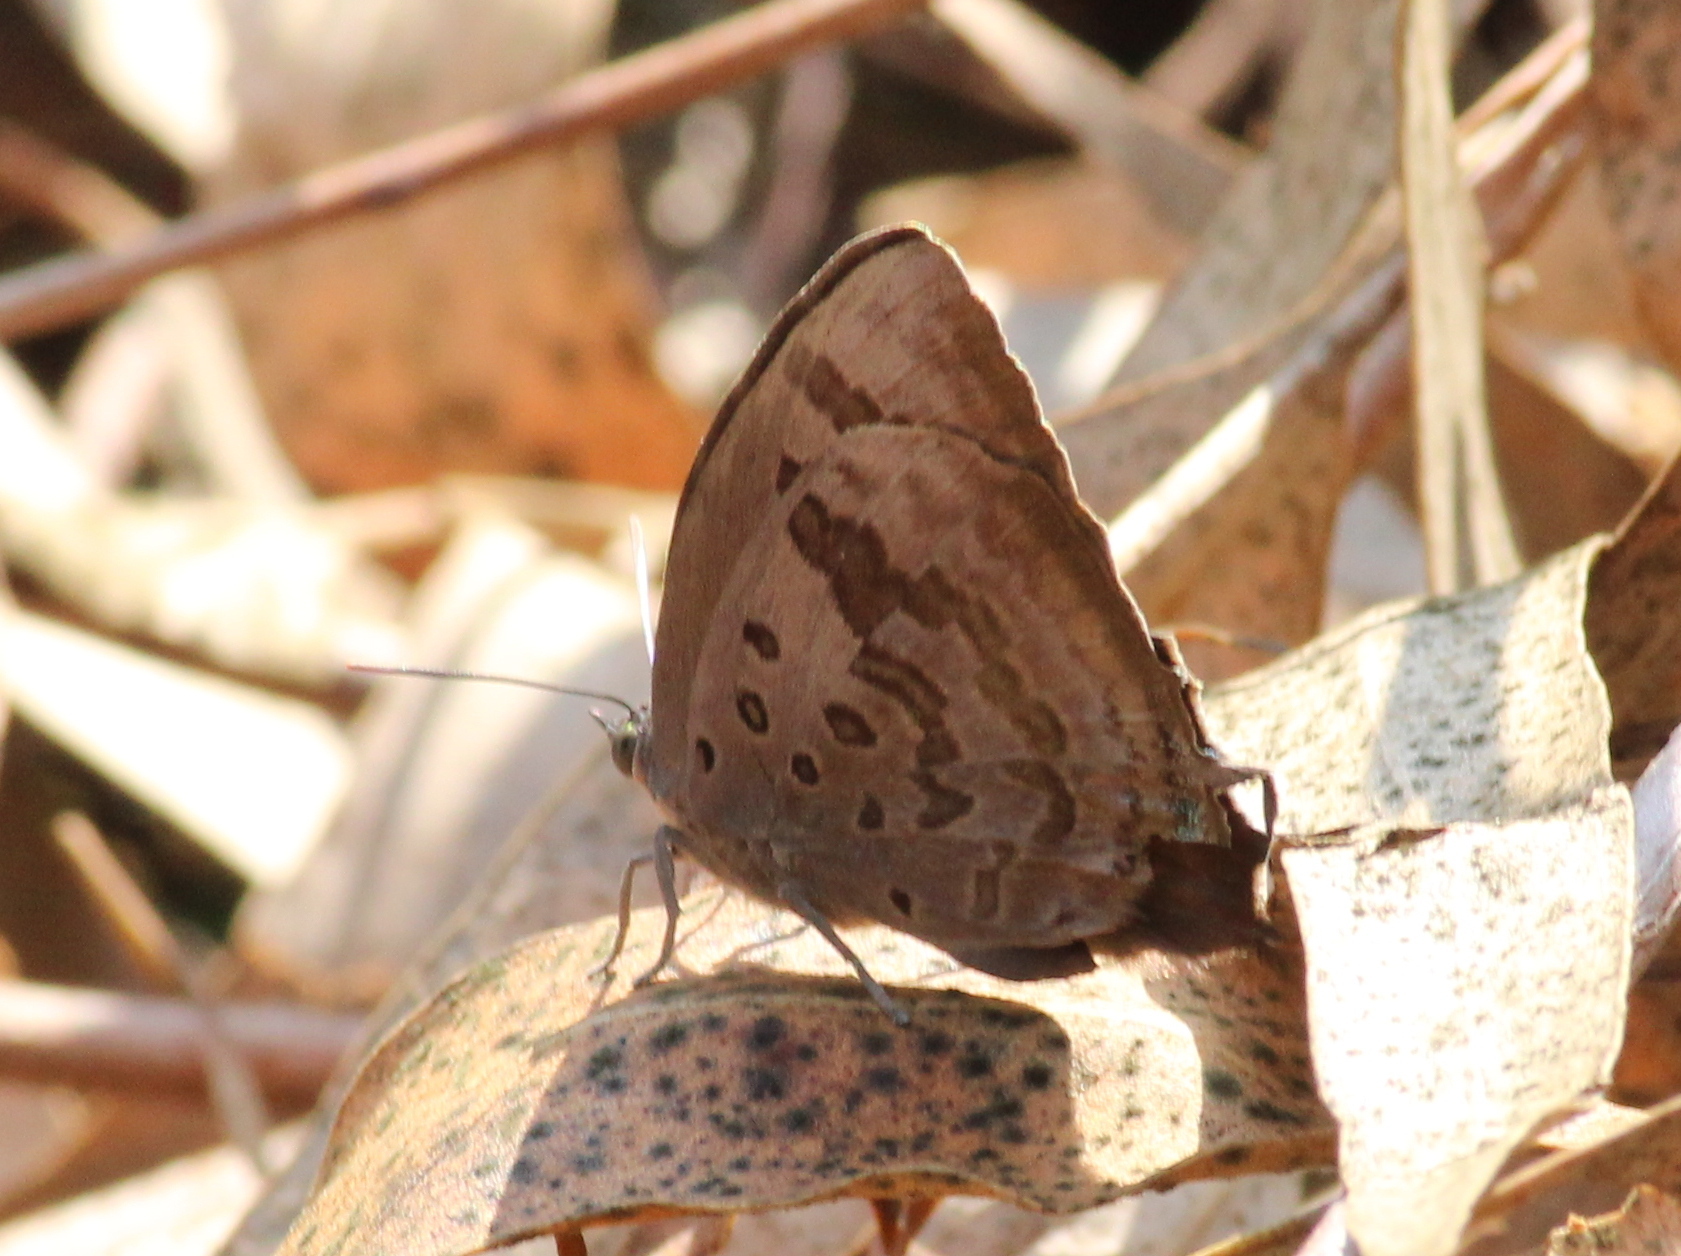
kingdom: Animalia
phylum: Arthropoda
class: Insecta
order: Lepidoptera
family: Lycaenidae
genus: Arhopala
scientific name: Arhopala amantes
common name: Large oakblue
